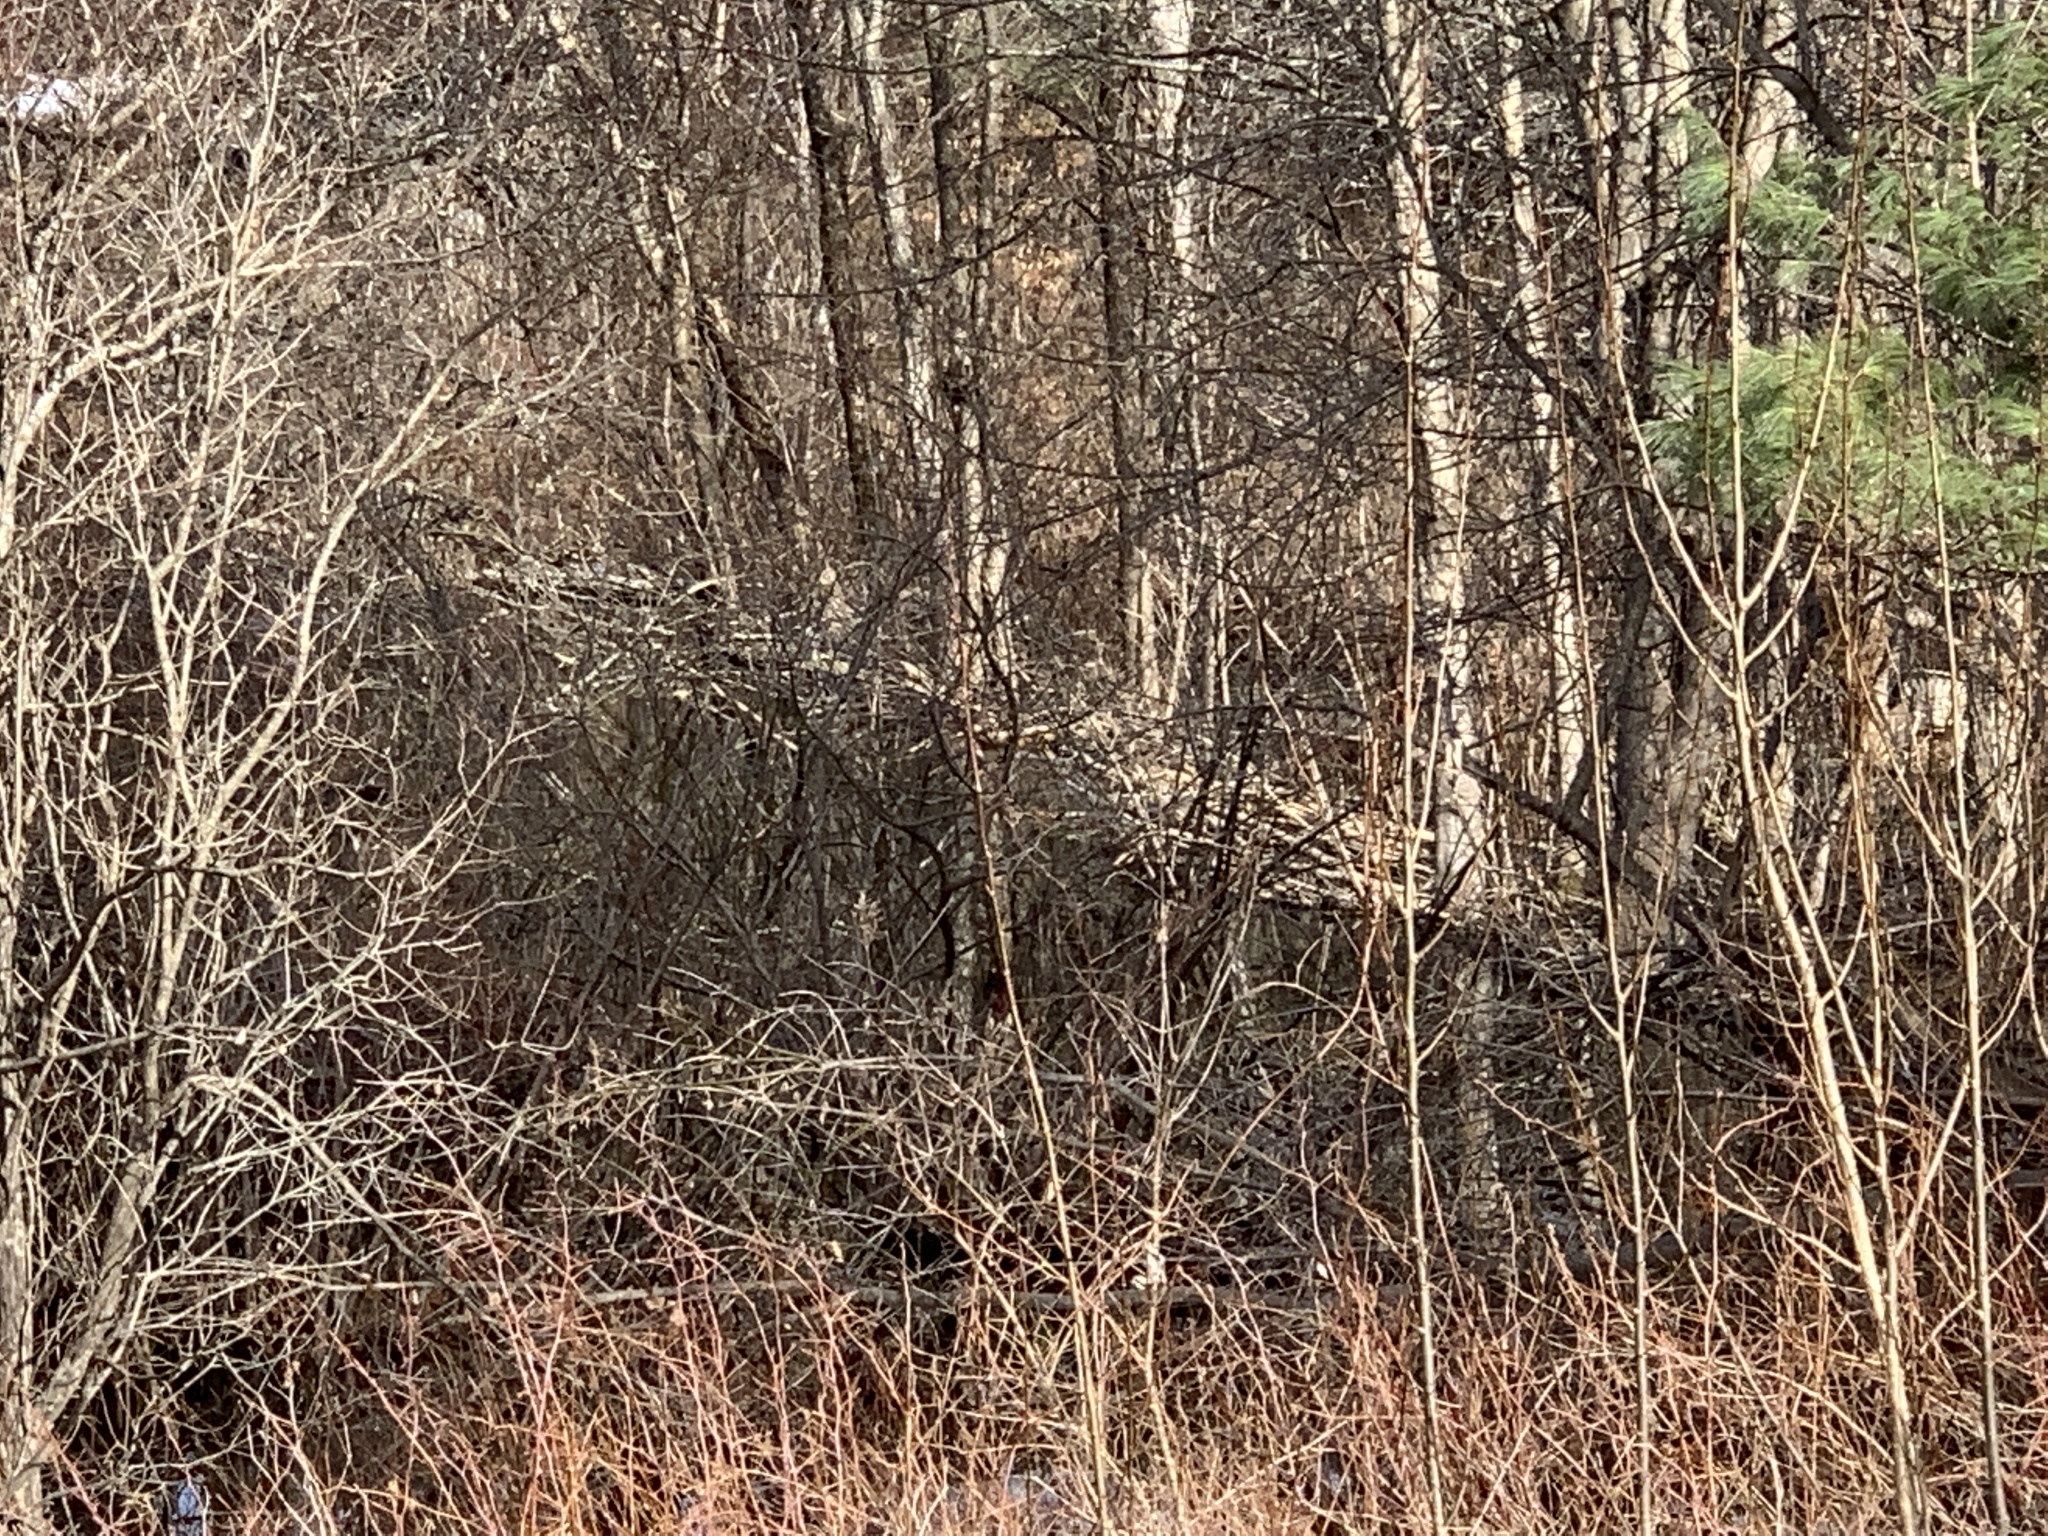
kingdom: Animalia
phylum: Chordata
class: Mammalia
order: Rodentia
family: Castoridae
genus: Castor
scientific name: Castor canadensis
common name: American beaver
